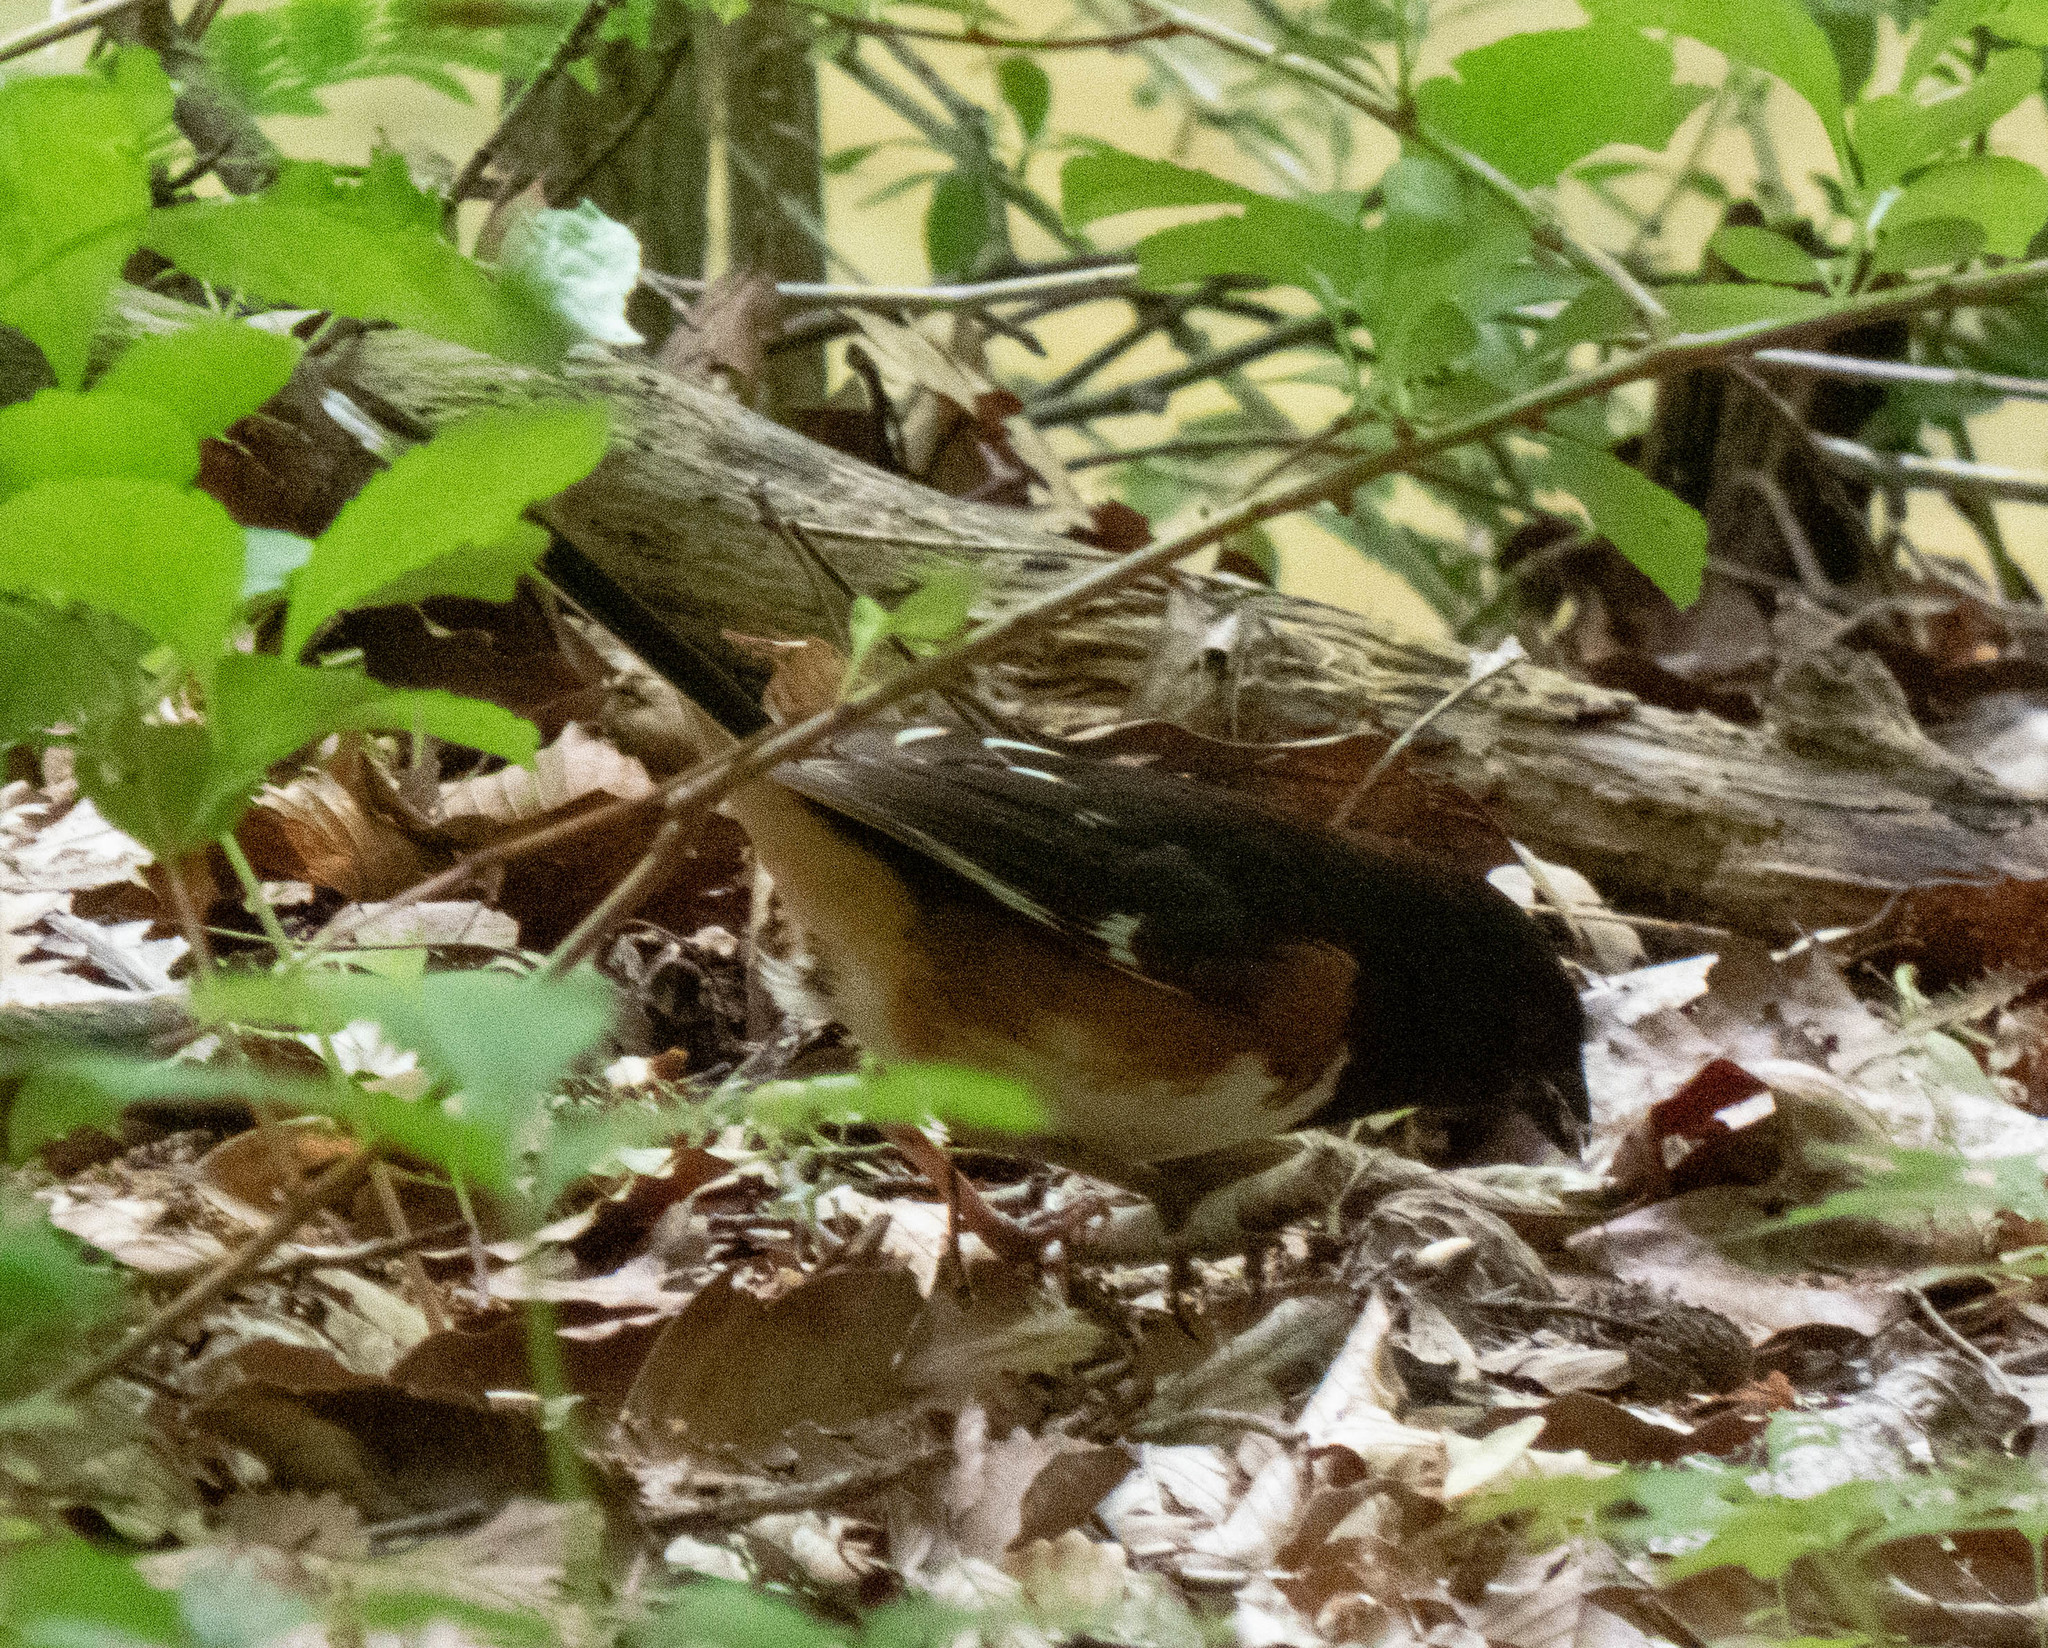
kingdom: Animalia
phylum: Chordata
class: Aves
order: Passeriformes
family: Passerellidae
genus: Pipilo
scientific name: Pipilo erythrophthalmus
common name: Eastern towhee
